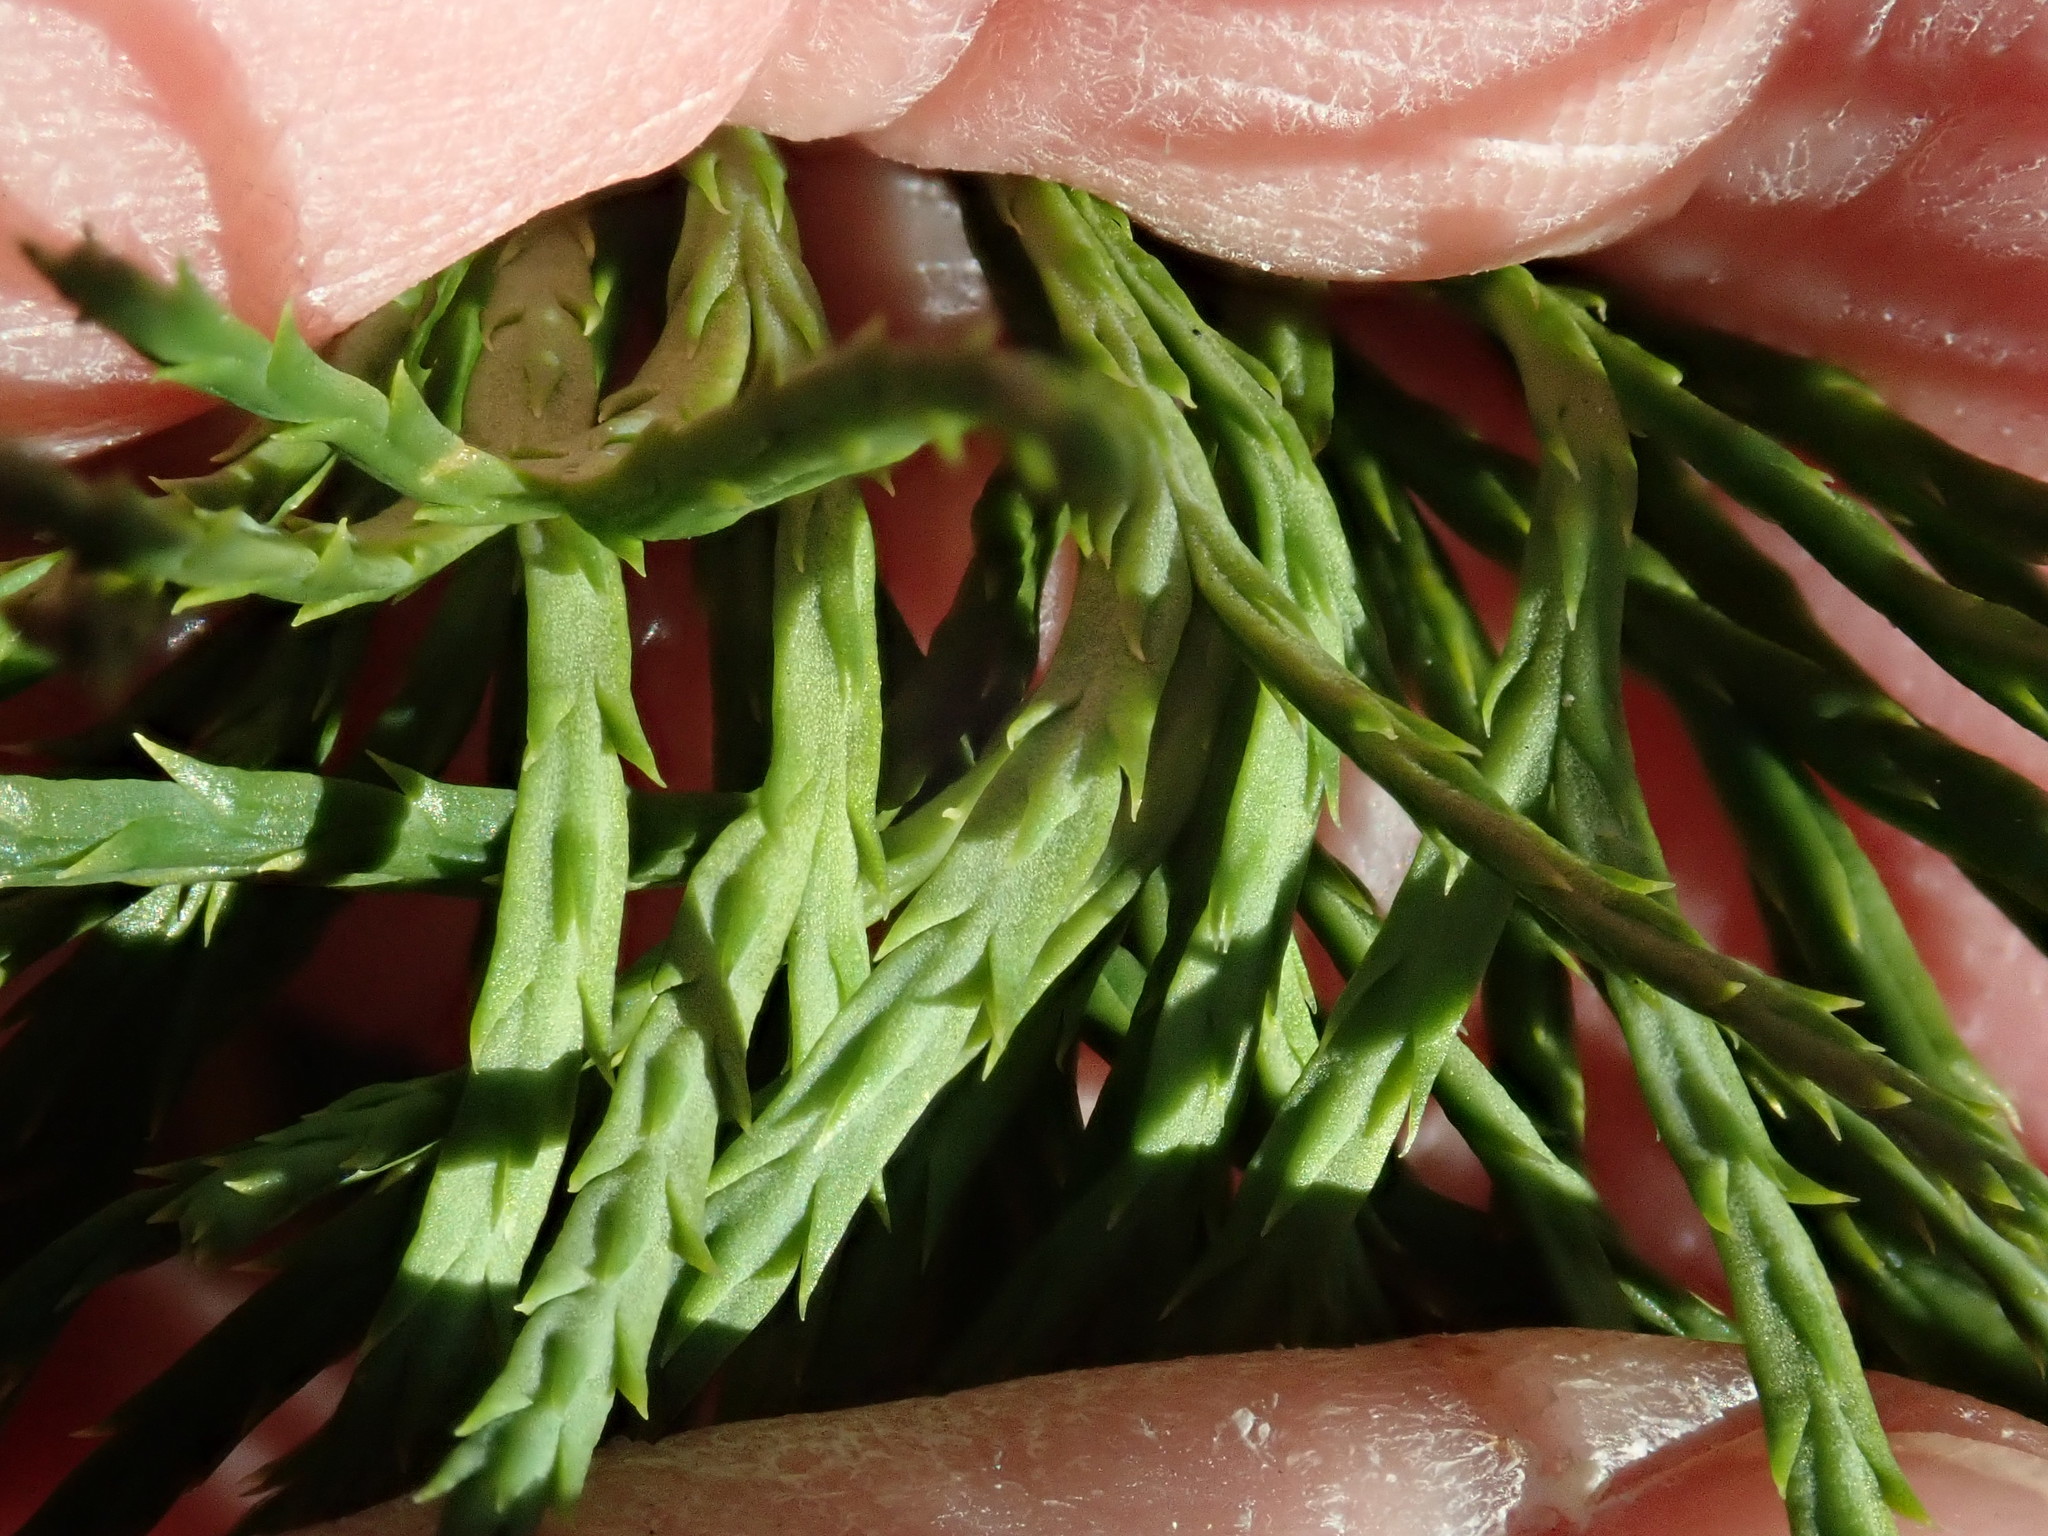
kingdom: Plantae
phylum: Tracheophyta
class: Lycopodiopsida
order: Lycopodiales
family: Lycopodiaceae
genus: Diphasiastrum
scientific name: Diphasiastrum tristachyum
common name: Blue ground-cedar
